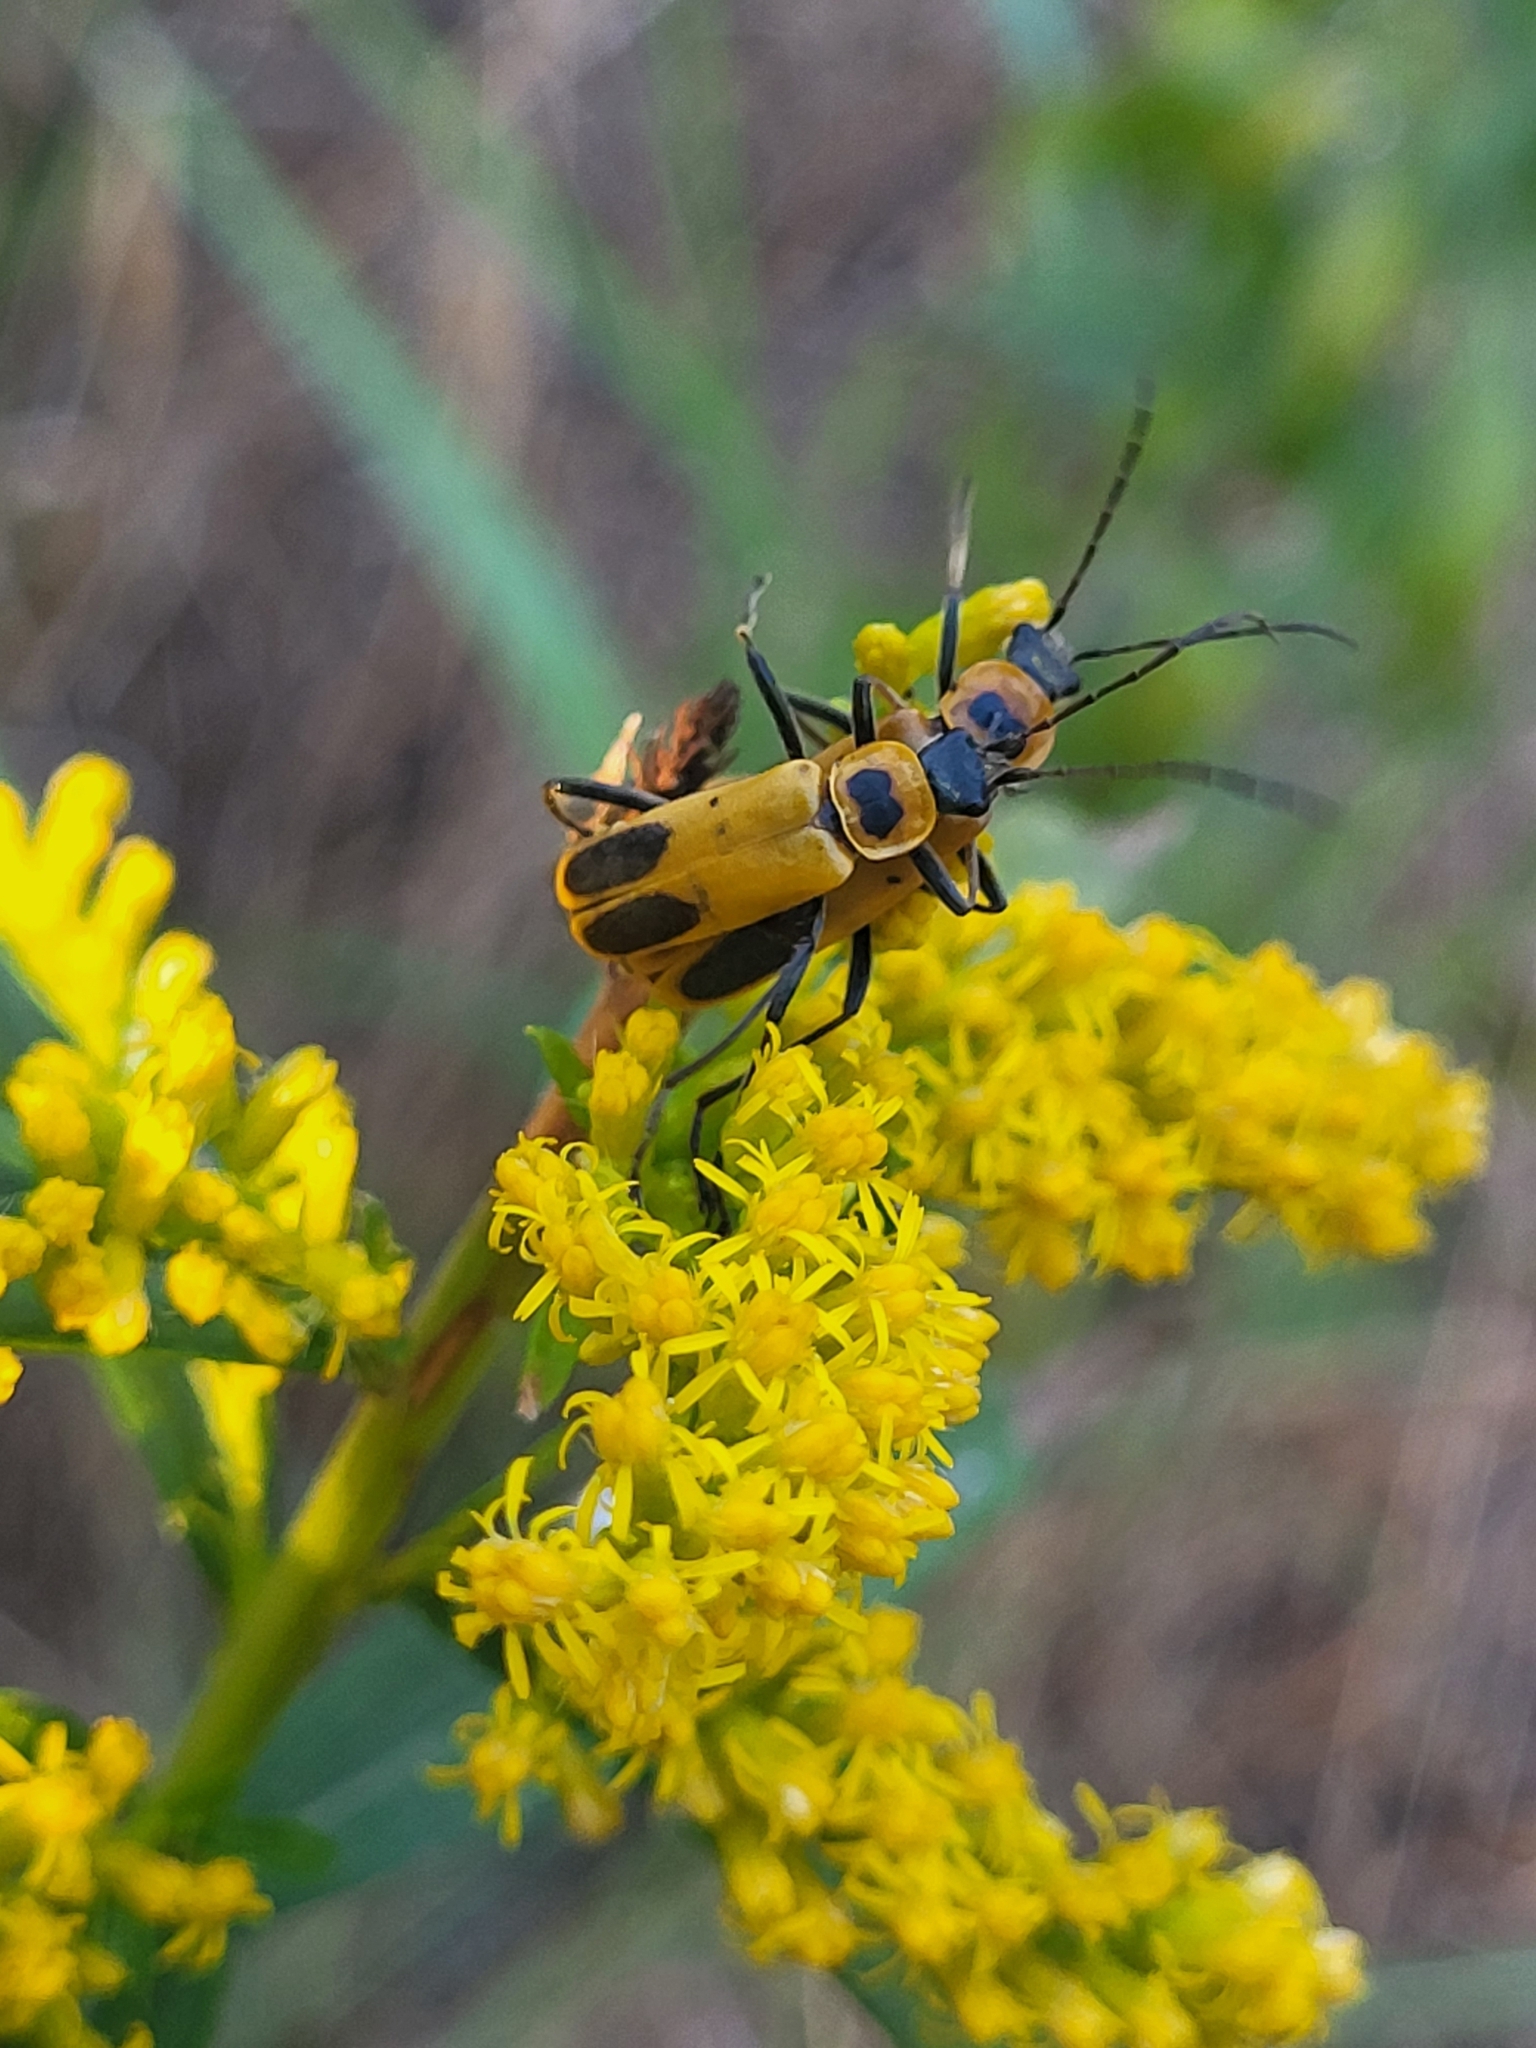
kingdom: Animalia
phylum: Arthropoda
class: Insecta
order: Coleoptera
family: Cantharidae
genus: Chauliognathus
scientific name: Chauliognathus pensylvanicus
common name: Goldenrod soldier beetle
